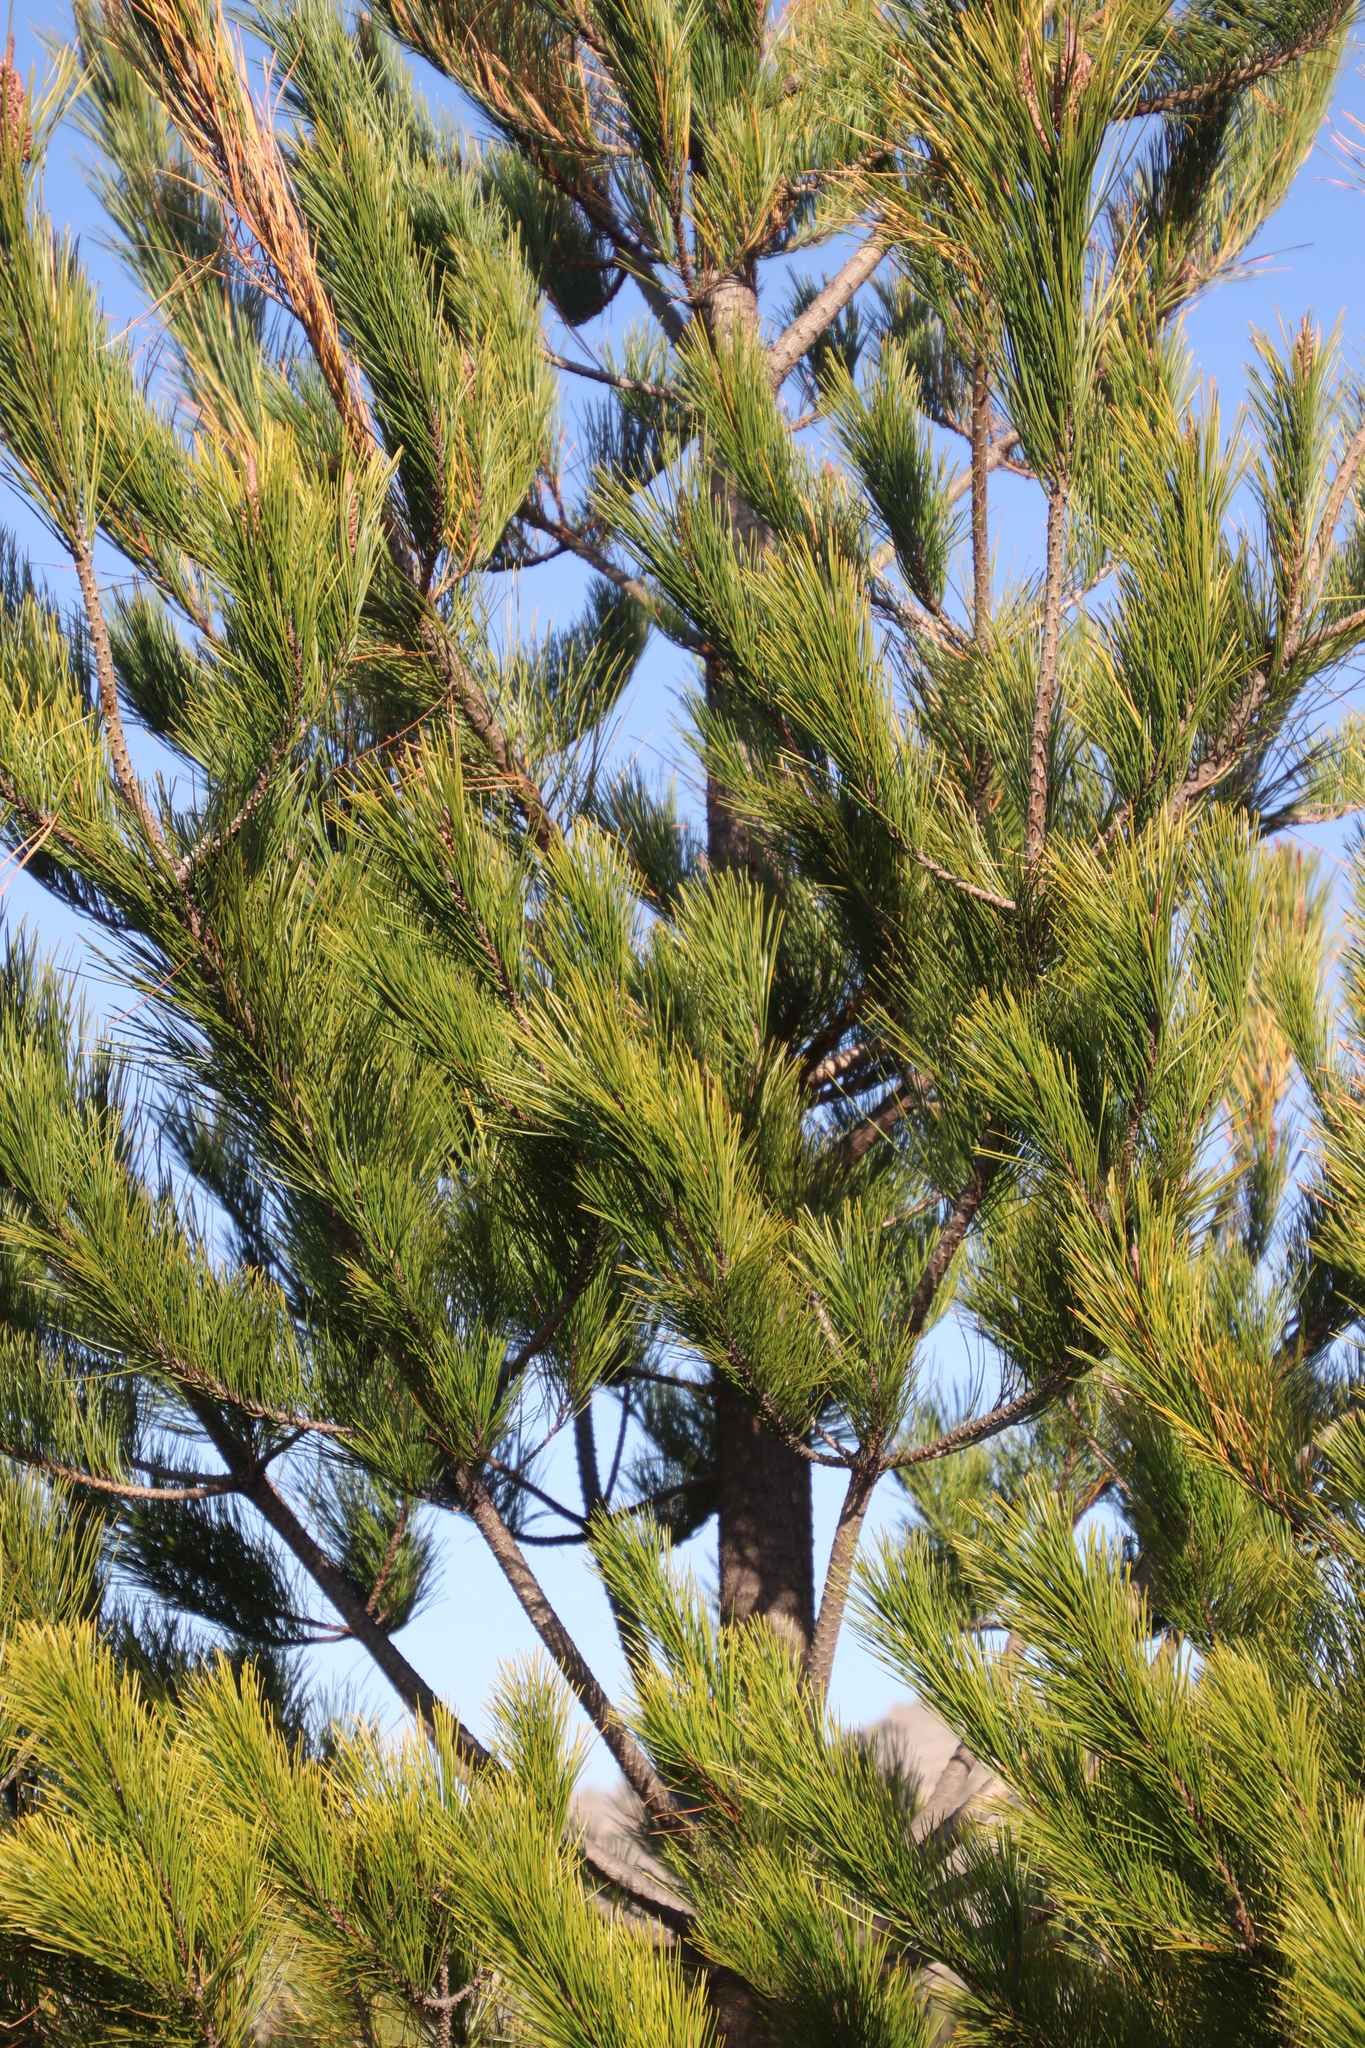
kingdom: Plantae
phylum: Tracheophyta
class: Pinopsida
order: Pinales
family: Pinaceae
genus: Pinus
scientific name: Pinus radiata
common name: Monterey pine
